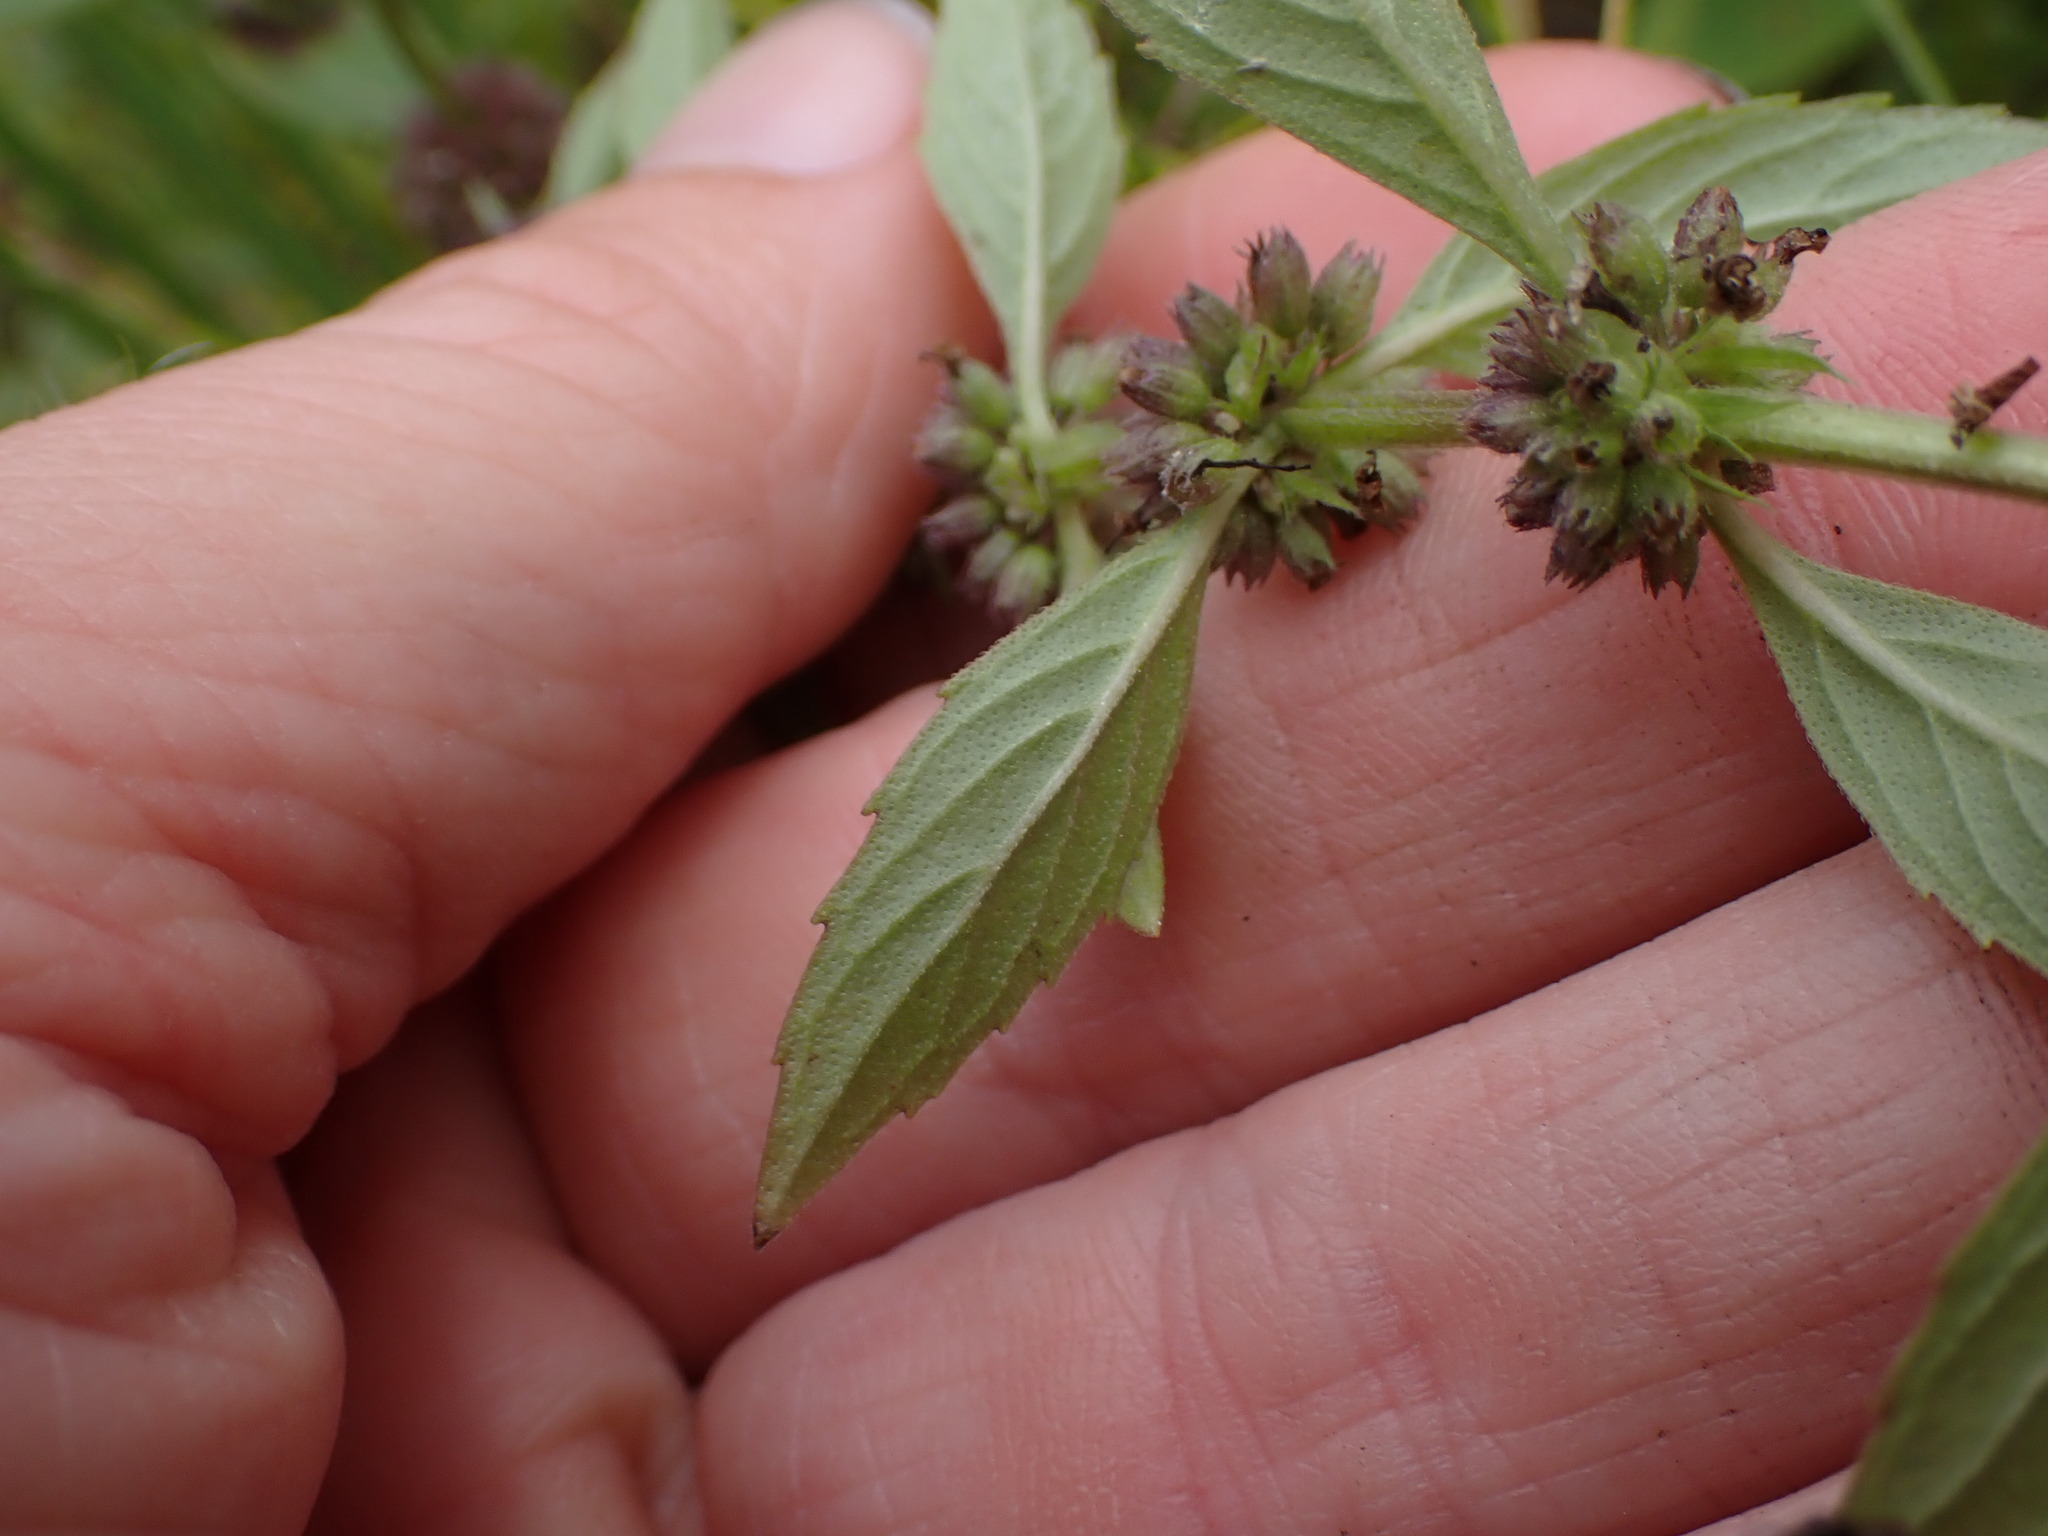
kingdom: Plantae
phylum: Tracheophyta
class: Magnoliopsida
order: Lamiales
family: Lamiaceae
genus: Mentha
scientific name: Mentha canadensis
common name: American corn mint
